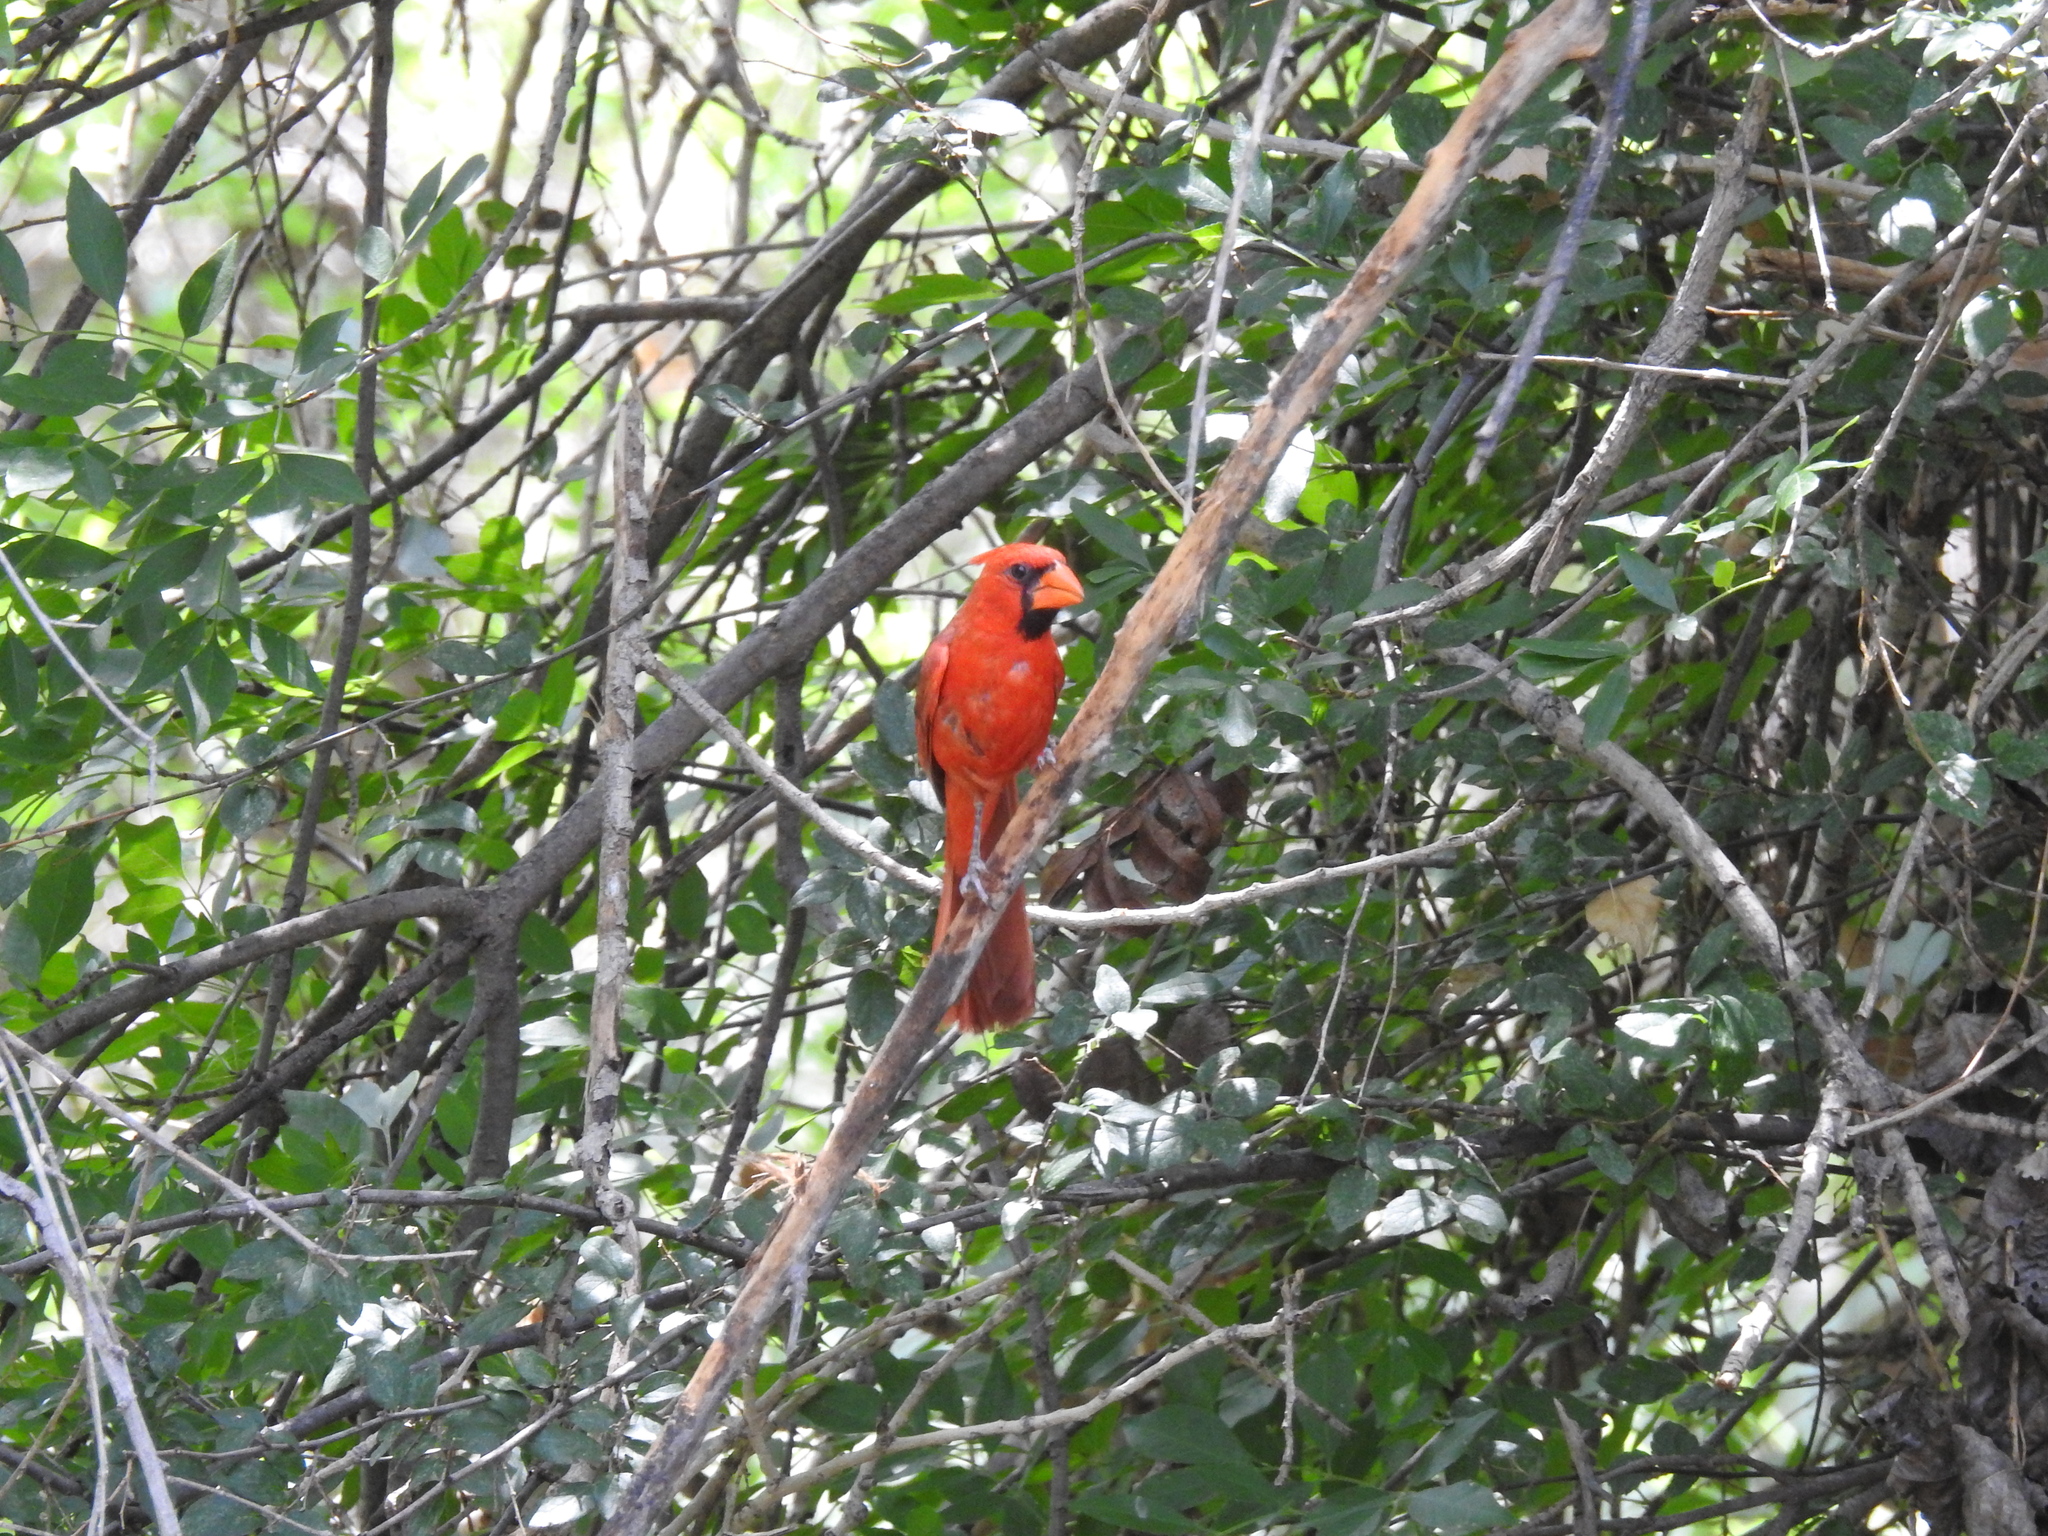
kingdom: Animalia
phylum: Chordata
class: Aves
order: Passeriformes
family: Cardinalidae
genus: Cardinalis
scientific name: Cardinalis cardinalis
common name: Northern cardinal
